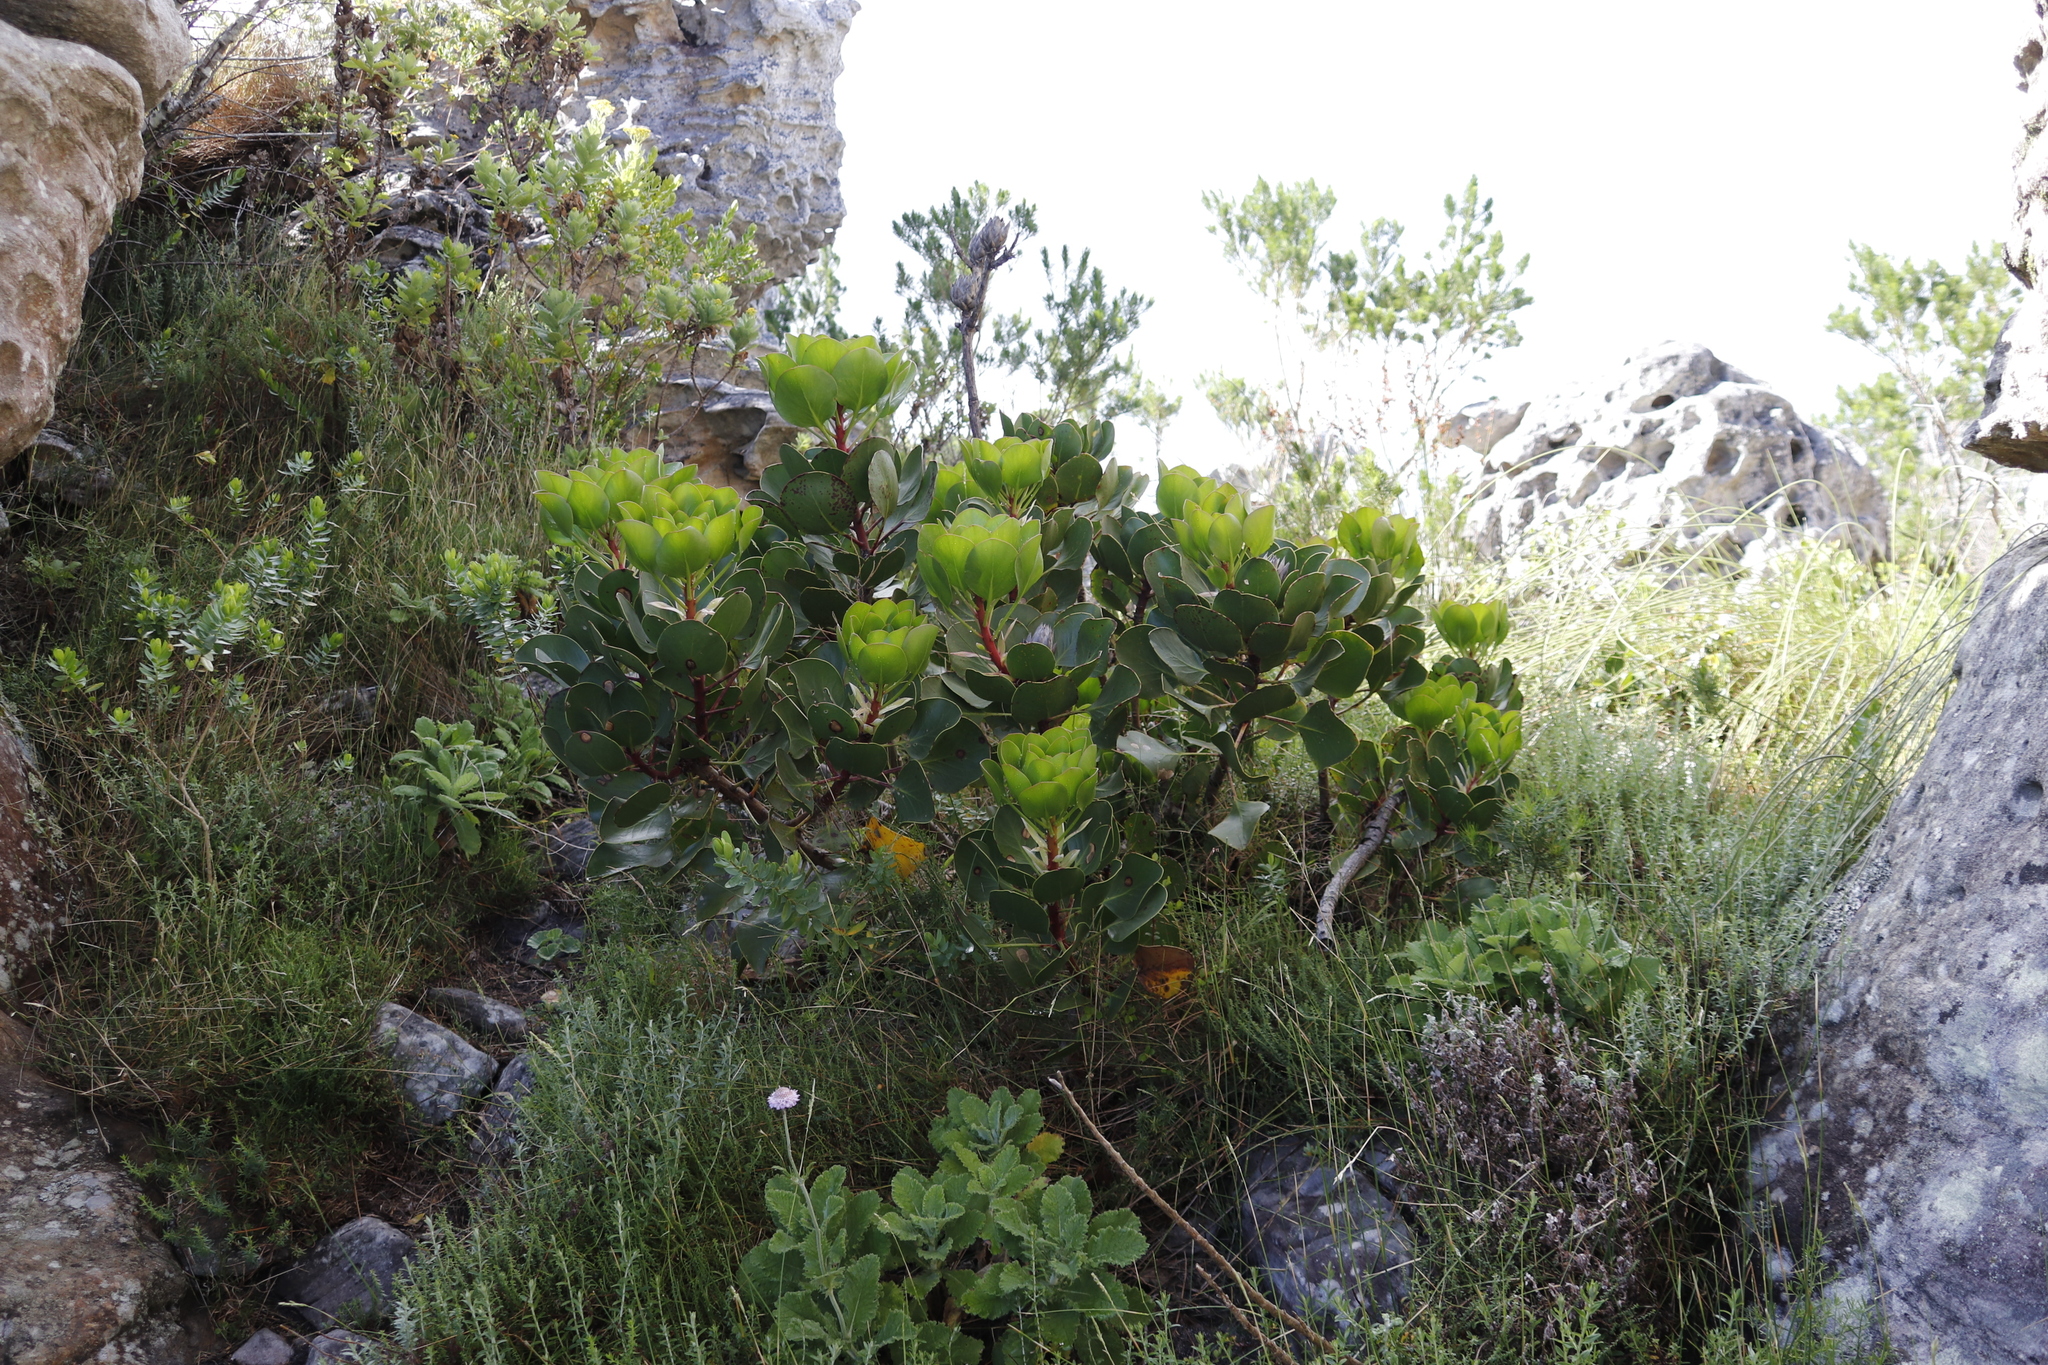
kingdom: Plantae
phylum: Tracheophyta
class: Magnoliopsida
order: Proteales
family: Proteaceae
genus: Protea
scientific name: Protea cynaroides
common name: King protea
